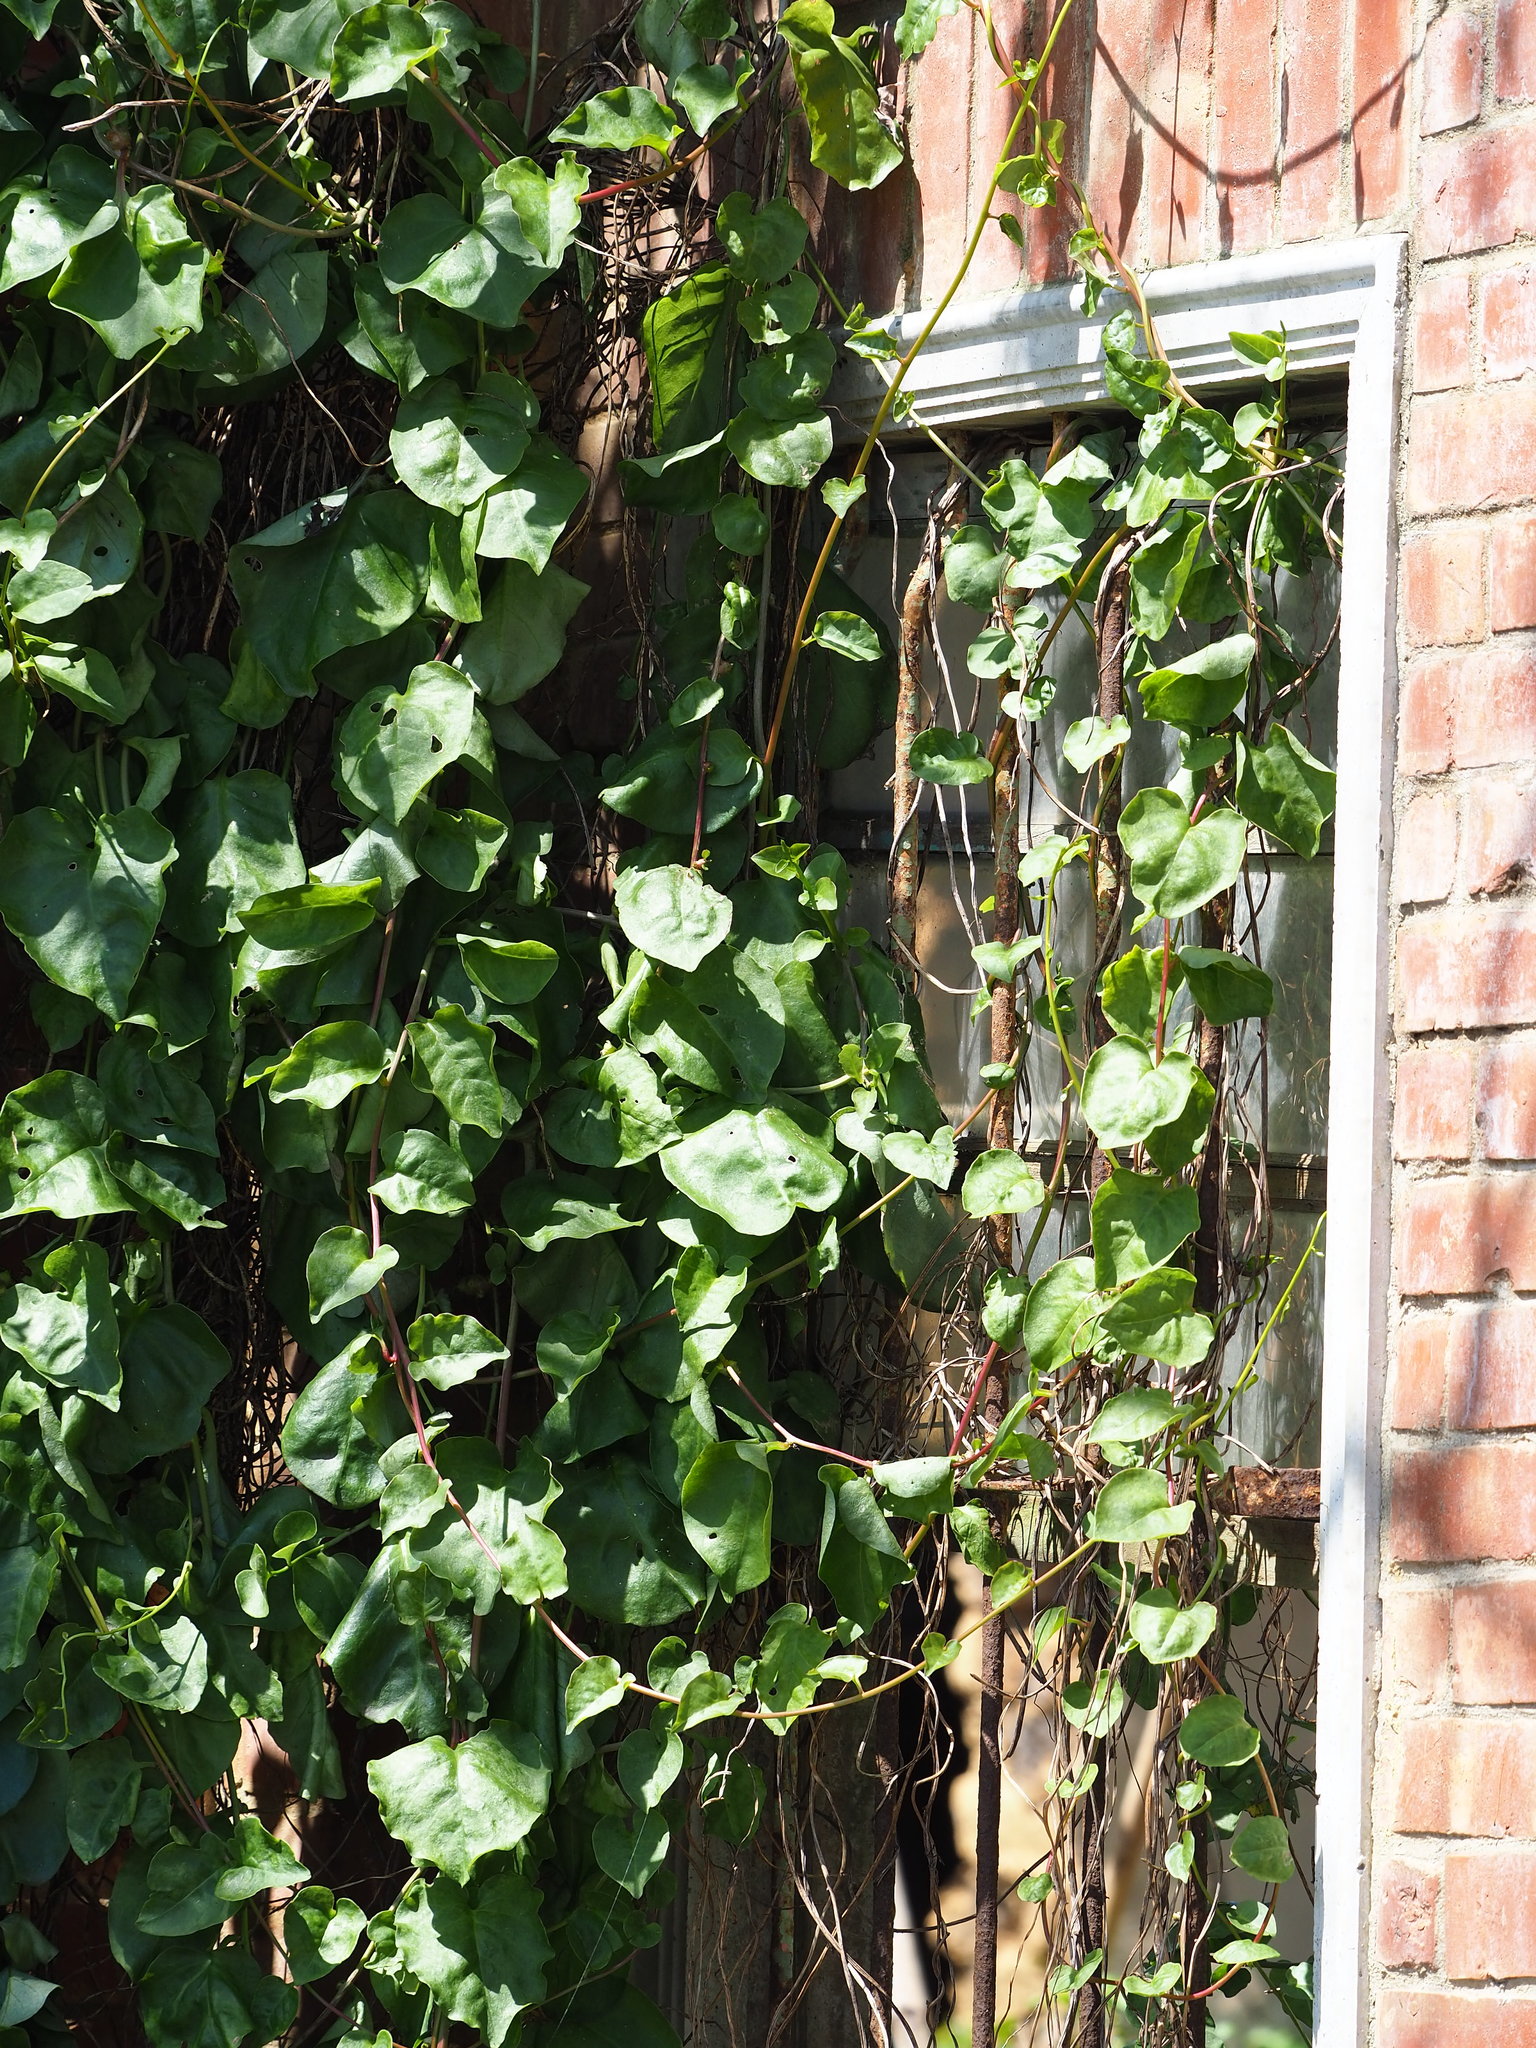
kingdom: Plantae
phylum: Tracheophyta
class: Magnoliopsida
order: Caryophyllales
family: Basellaceae
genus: Anredera
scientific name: Anredera cordifolia
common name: Heartleaf madeiravine
